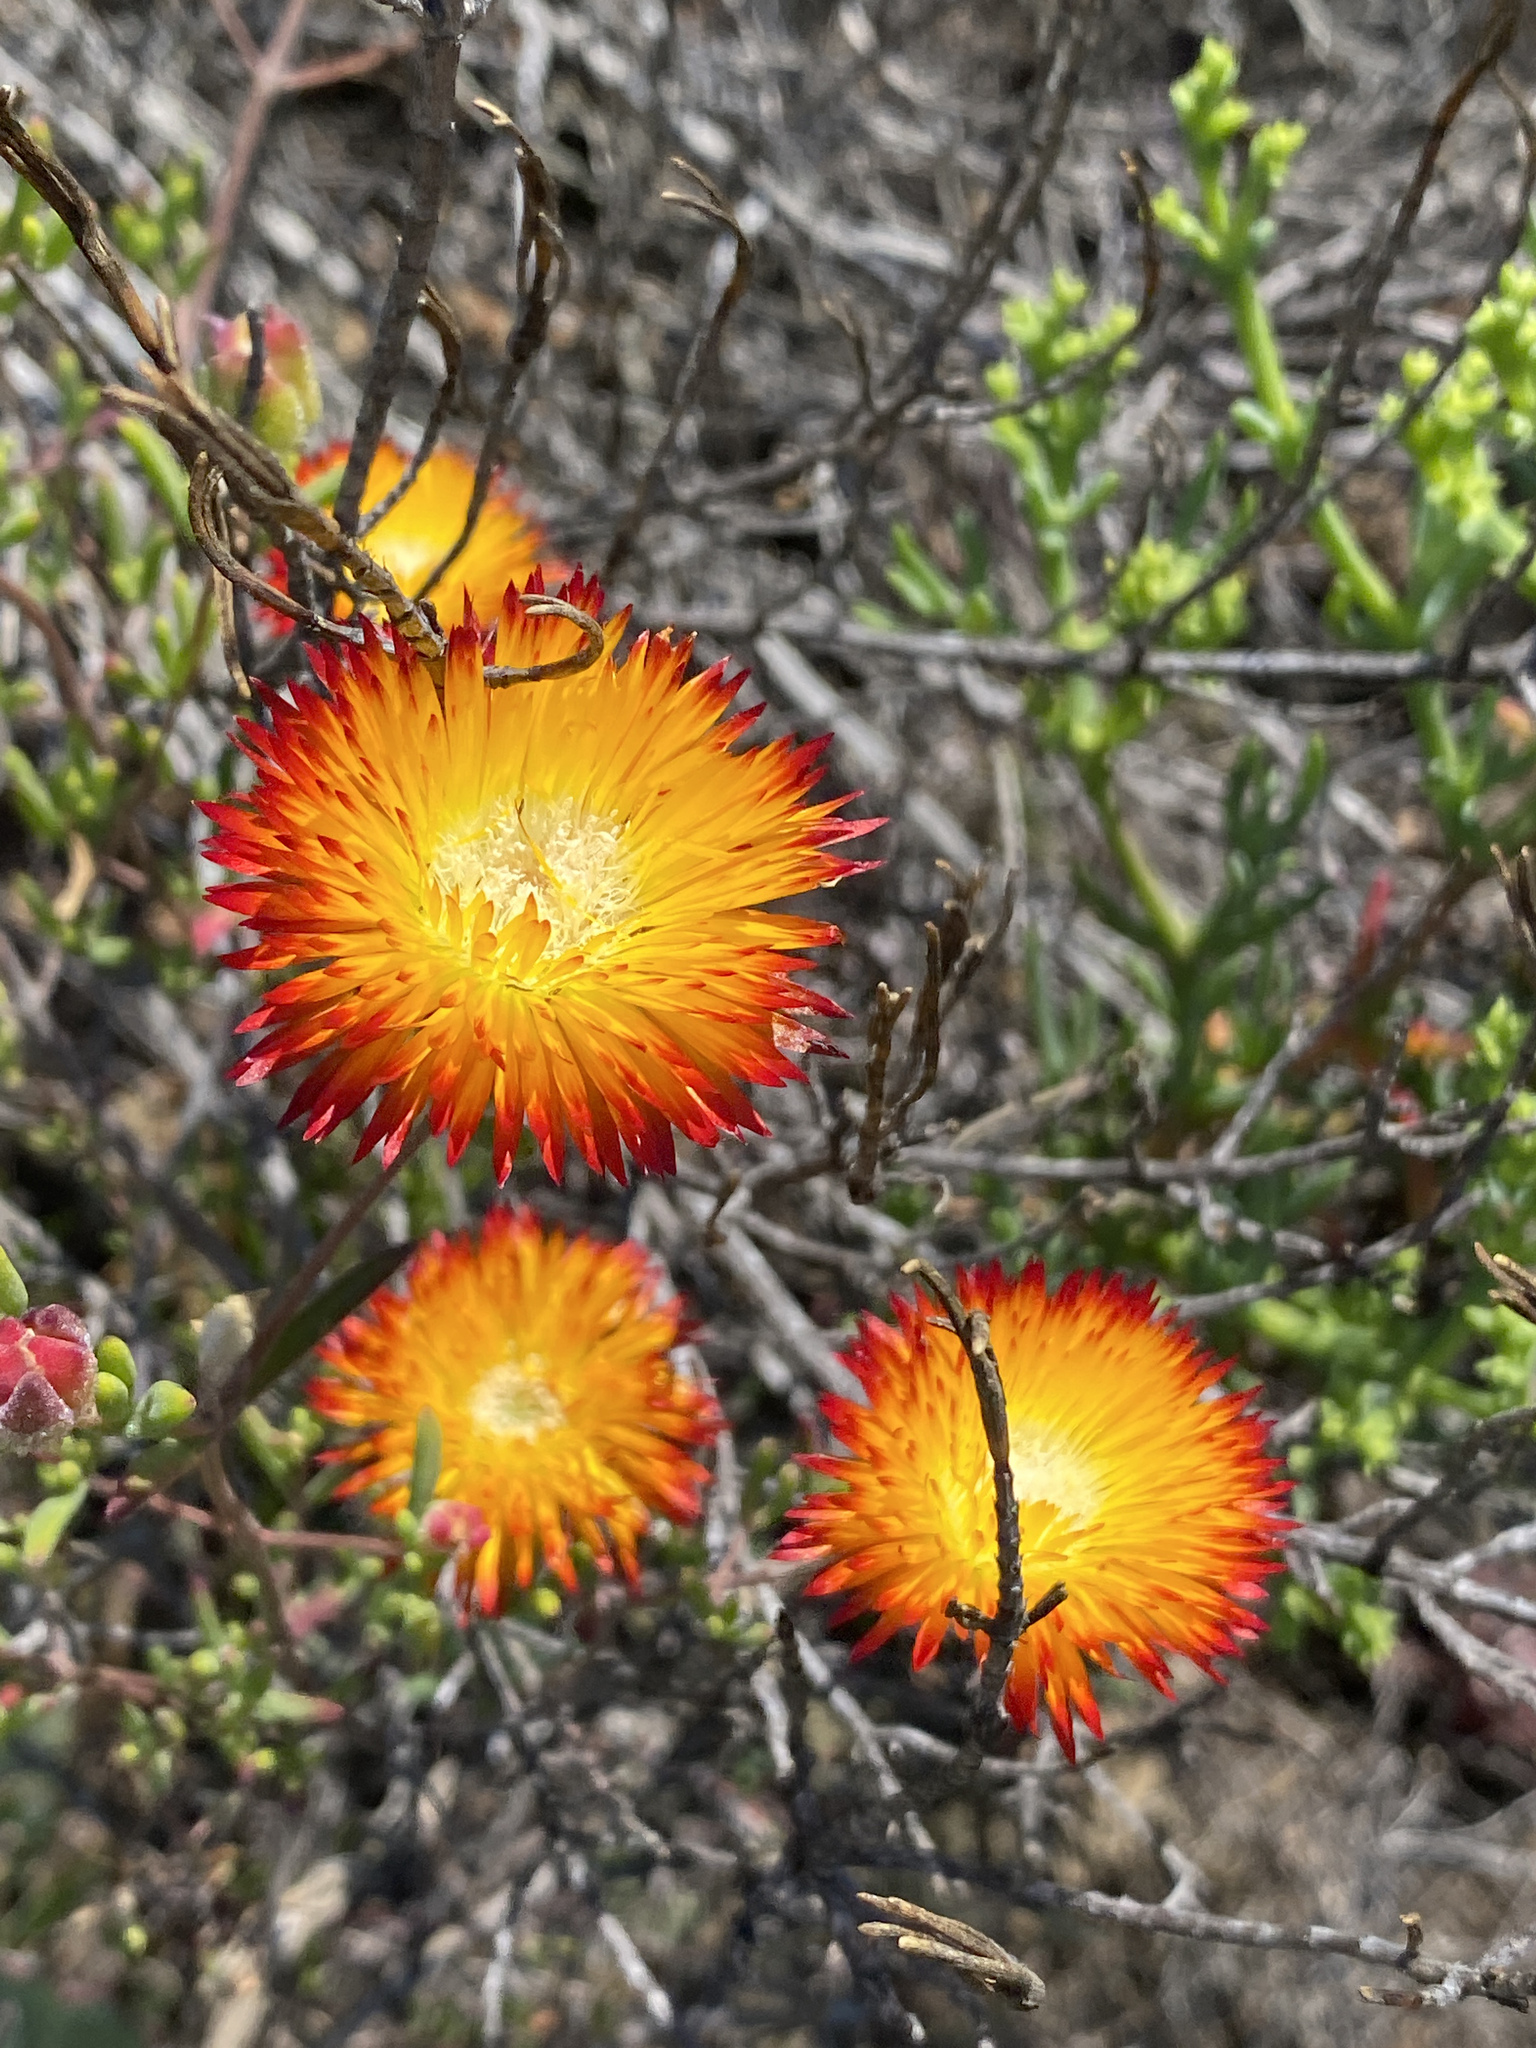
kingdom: Plantae
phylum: Tracheophyta
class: Magnoliopsida
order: Caryophyllales
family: Aizoaceae
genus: Drosanthemum
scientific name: Drosanthemum bicolor
